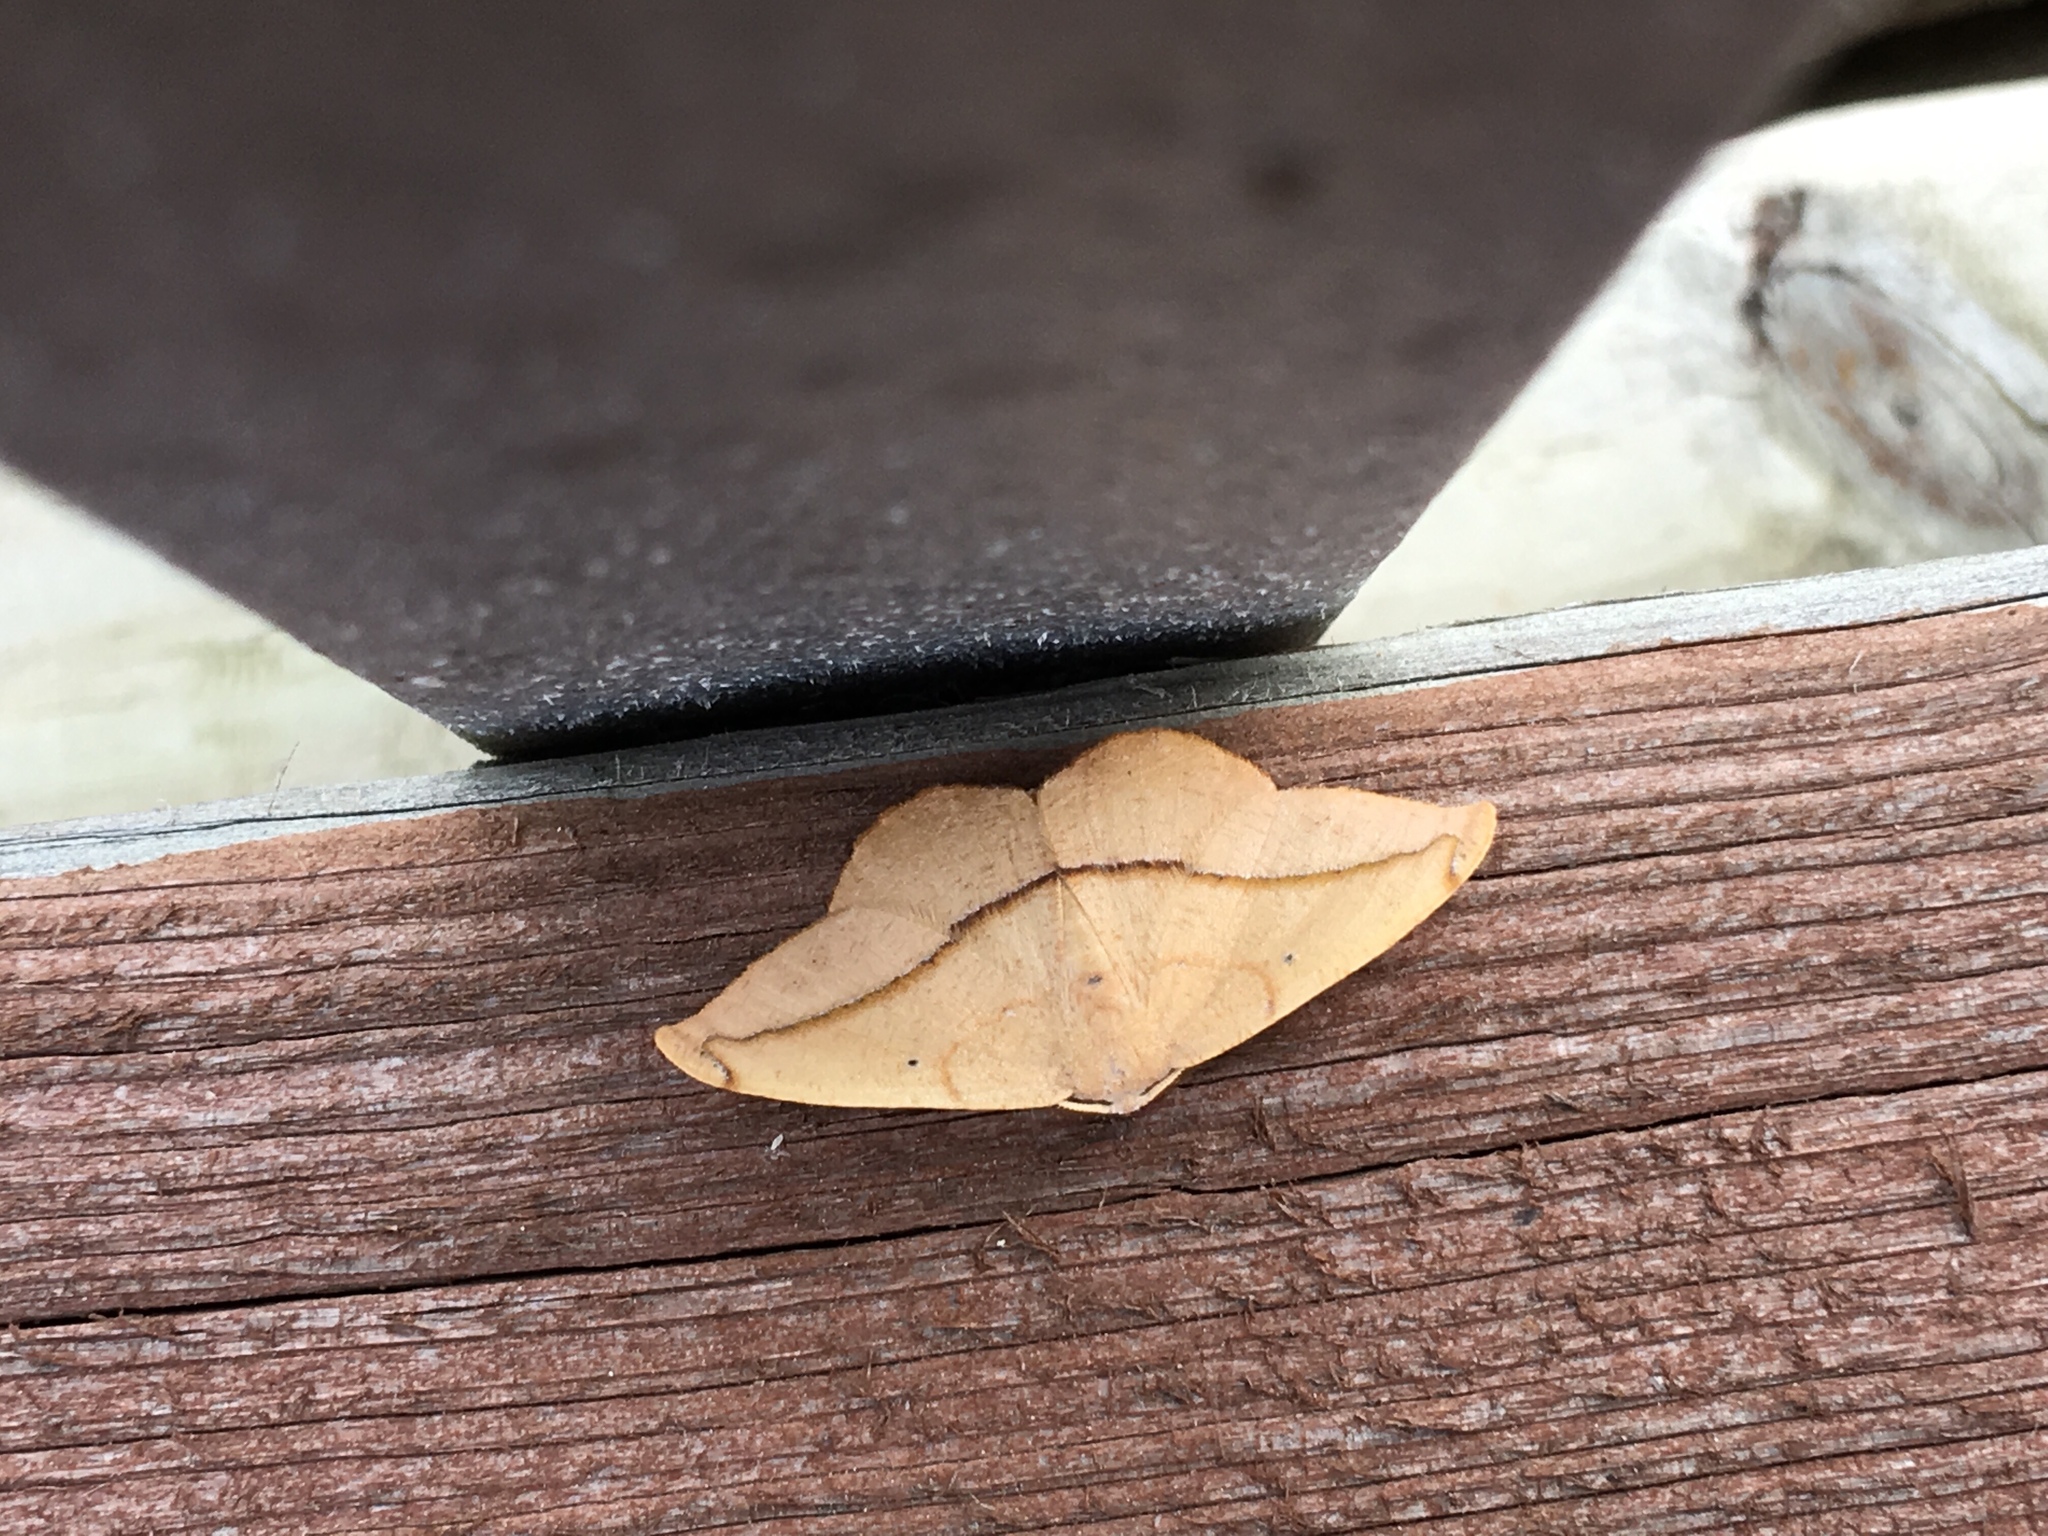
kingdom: Animalia
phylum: Arthropoda
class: Insecta
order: Lepidoptera
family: Geometridae
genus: Patalene
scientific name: Patalene olyzonaria
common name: Juniper geometer moth
